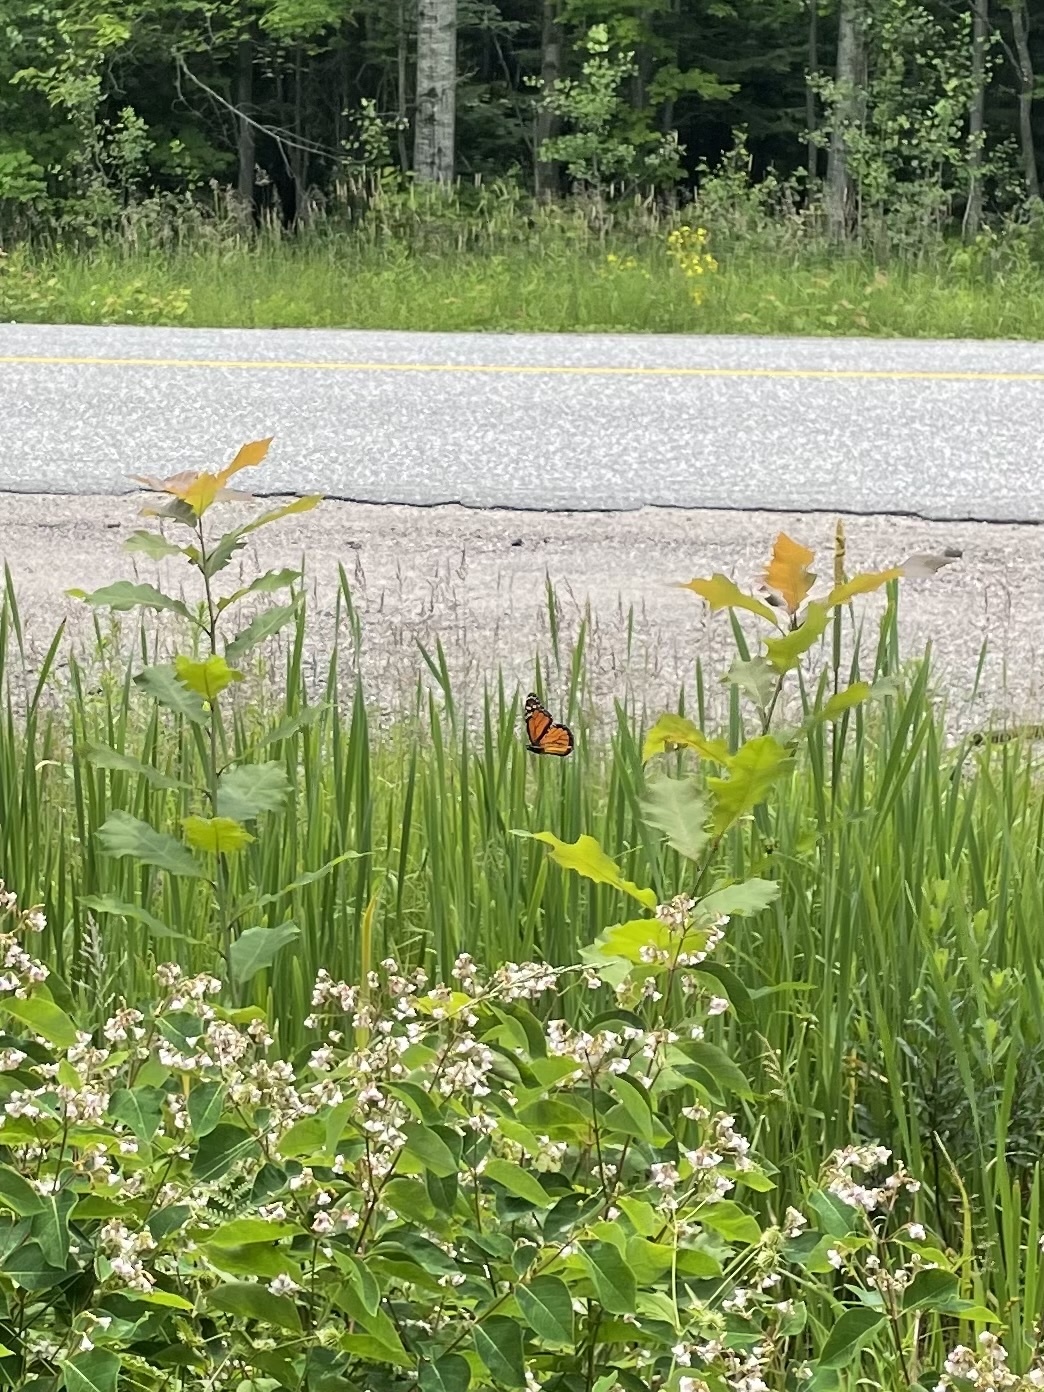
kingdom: Animalia
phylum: Arthropoda
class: Insecta
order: Lepidoptera
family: Nymphalidae
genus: Danaus
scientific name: Danaus plexippus
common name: Monarch
